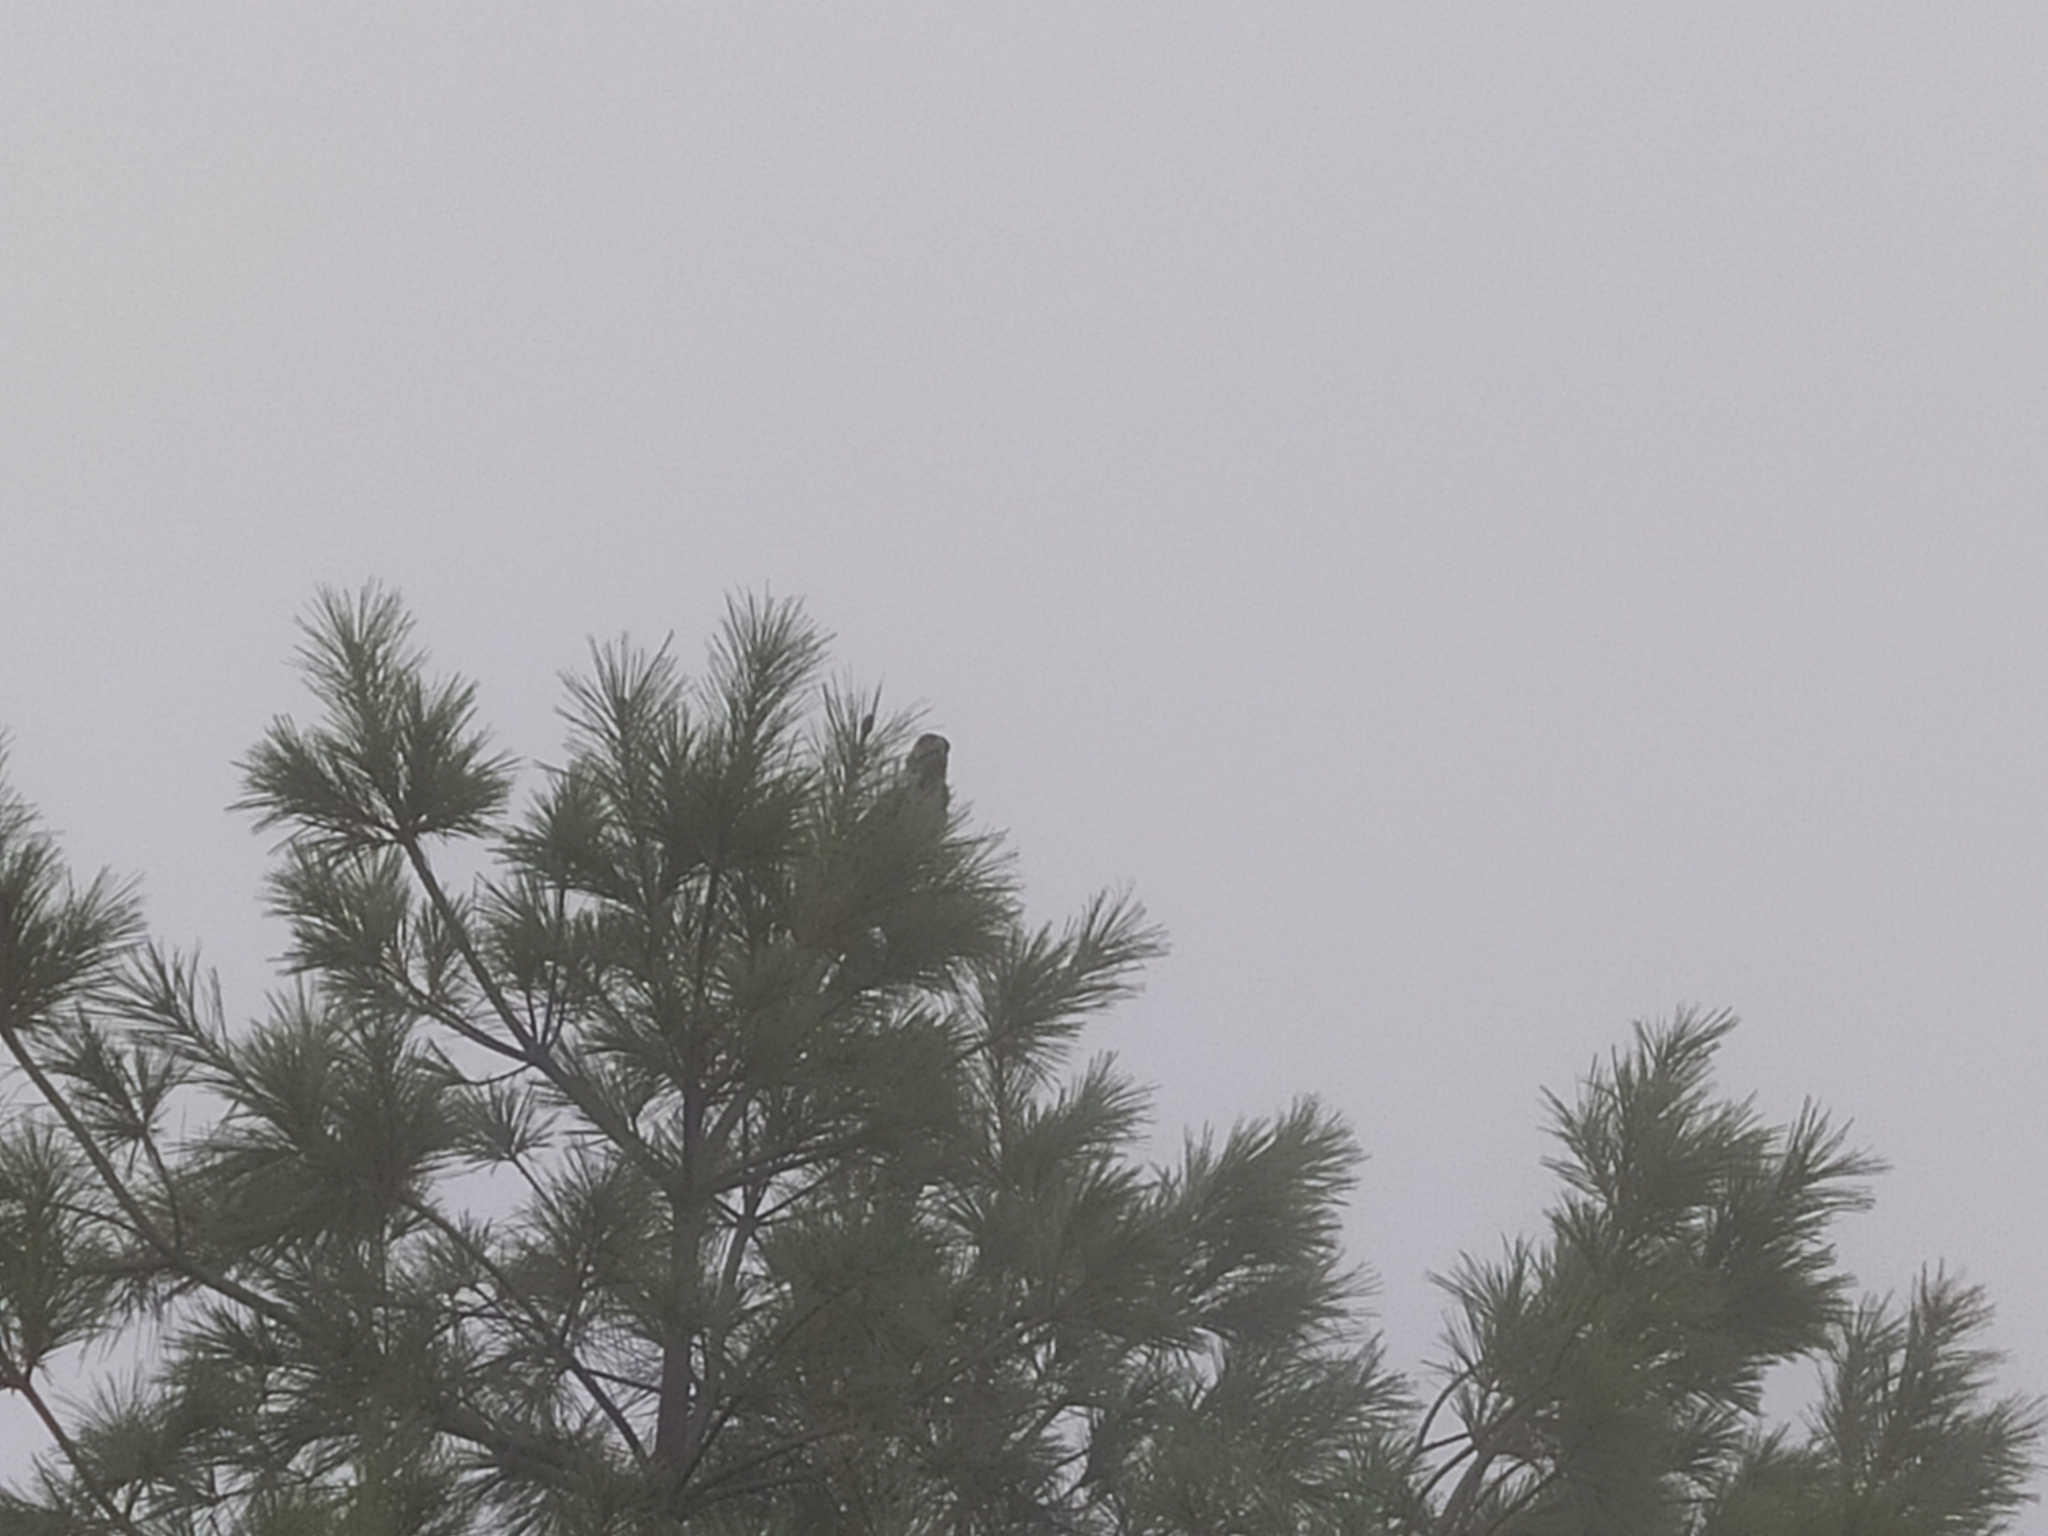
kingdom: Animalia
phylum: Chordata
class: Aves
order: Passeriformes
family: Corvidae
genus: Nucifraga
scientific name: Nucifraga caryocatactes
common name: Spotted nutcracker
